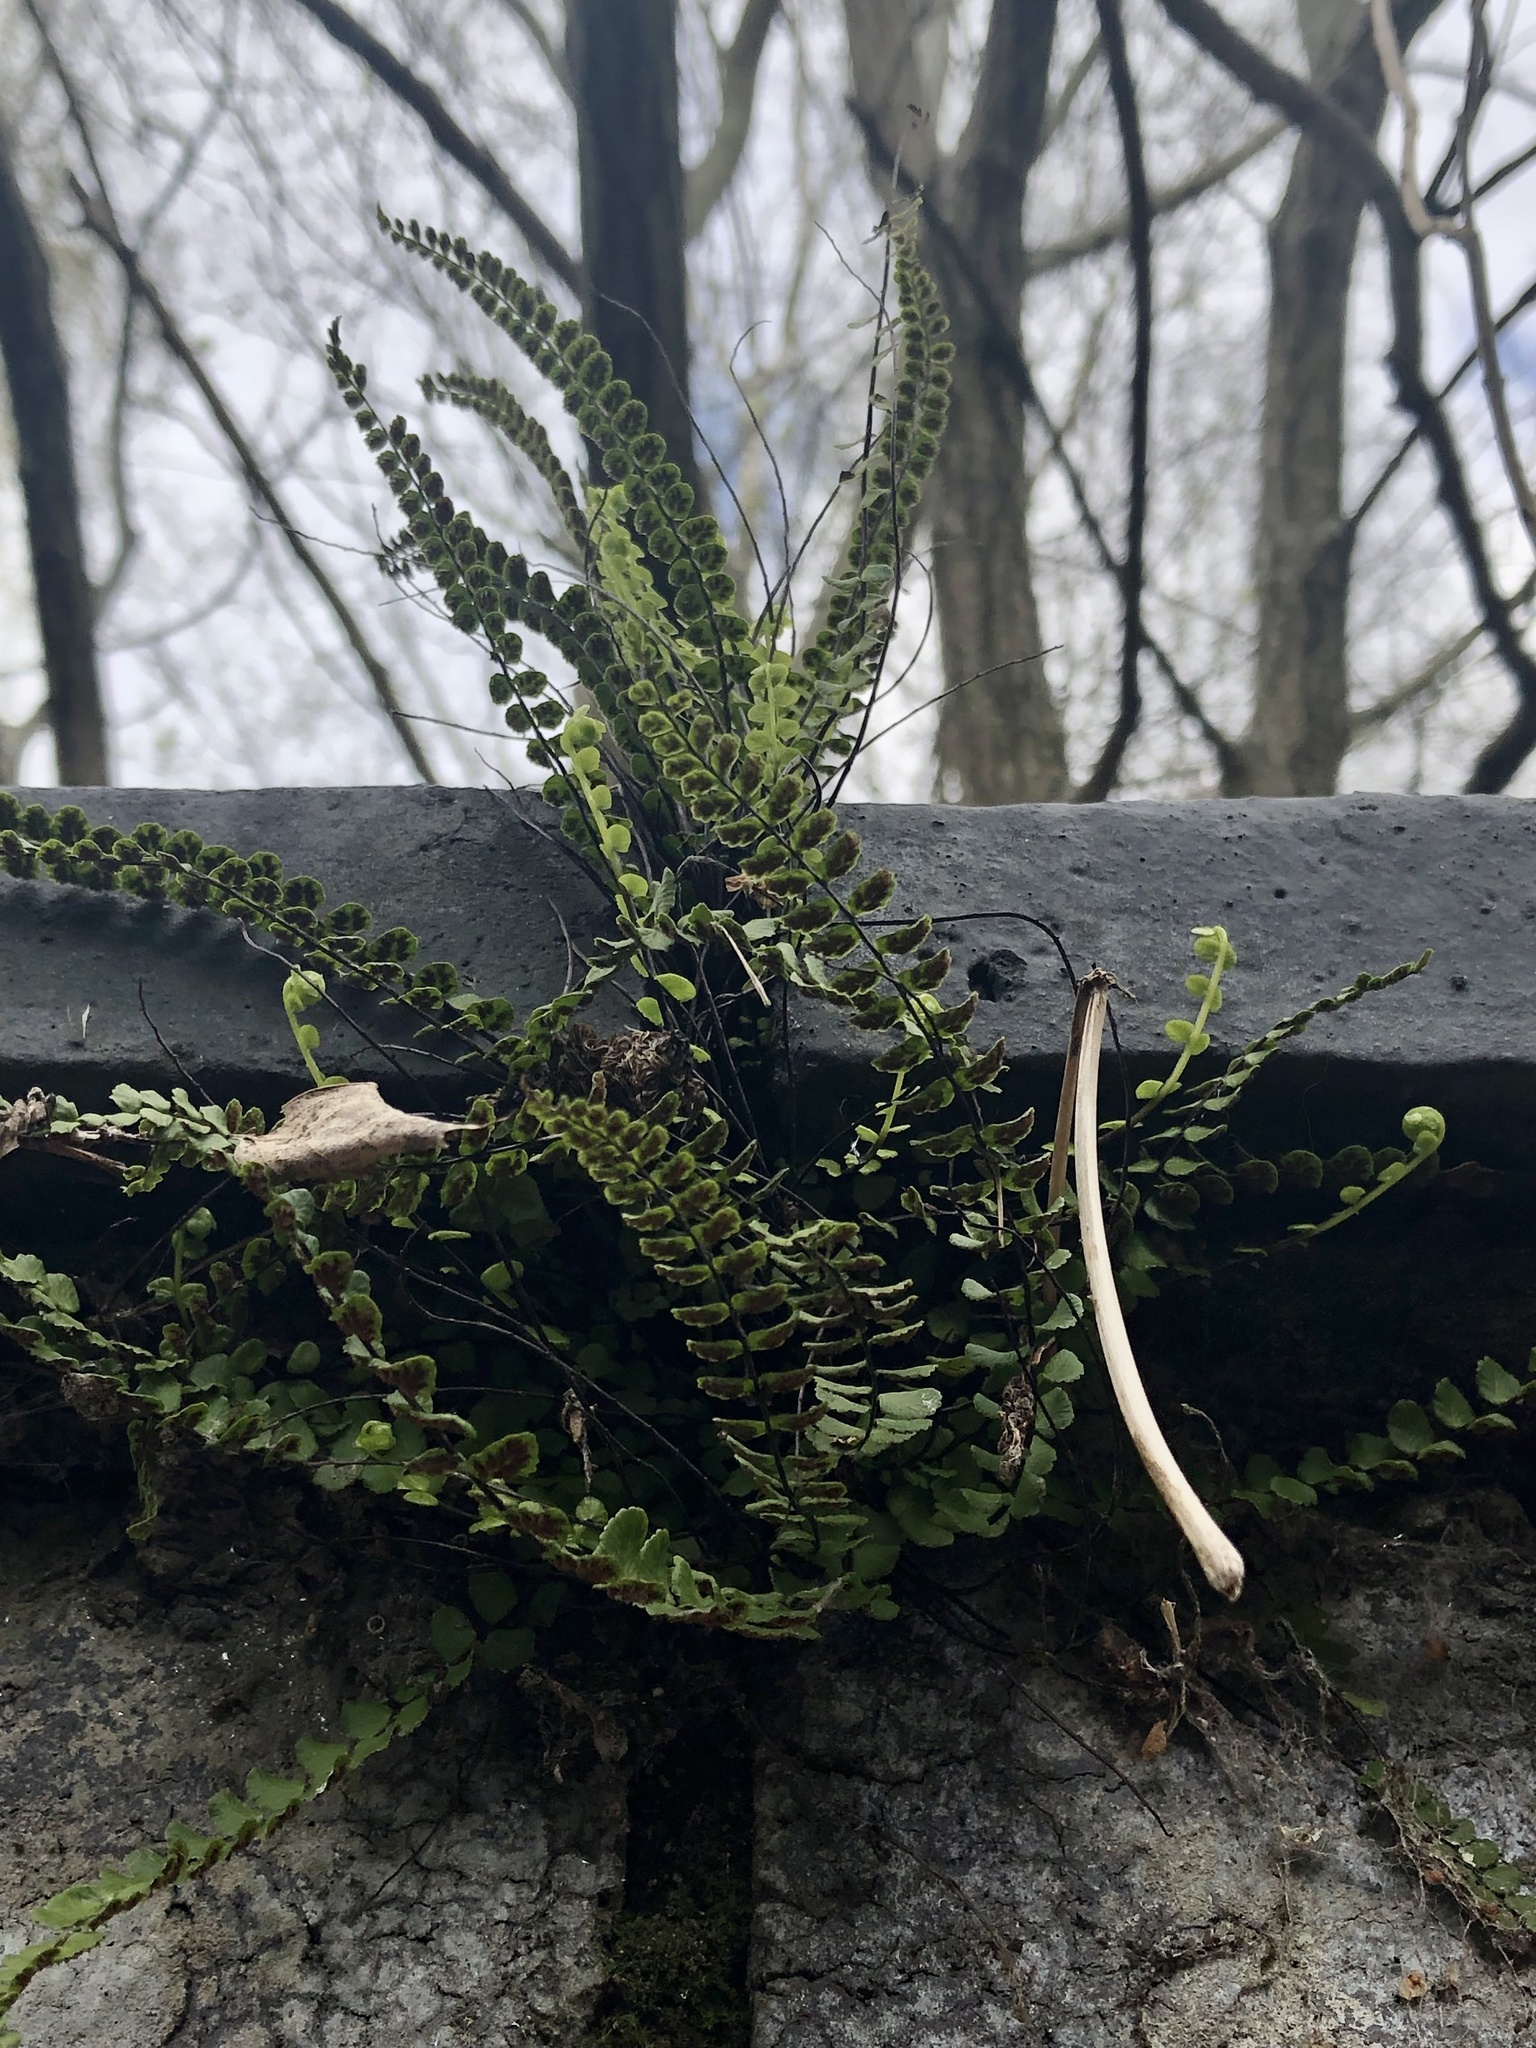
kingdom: Plantae
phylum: Tracheophyta
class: Polypodiopsida
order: Polypodiales
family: Aspleniaceae
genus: Asplenium
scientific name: Asplenium trichomanes
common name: Maidenhair spleenwort
